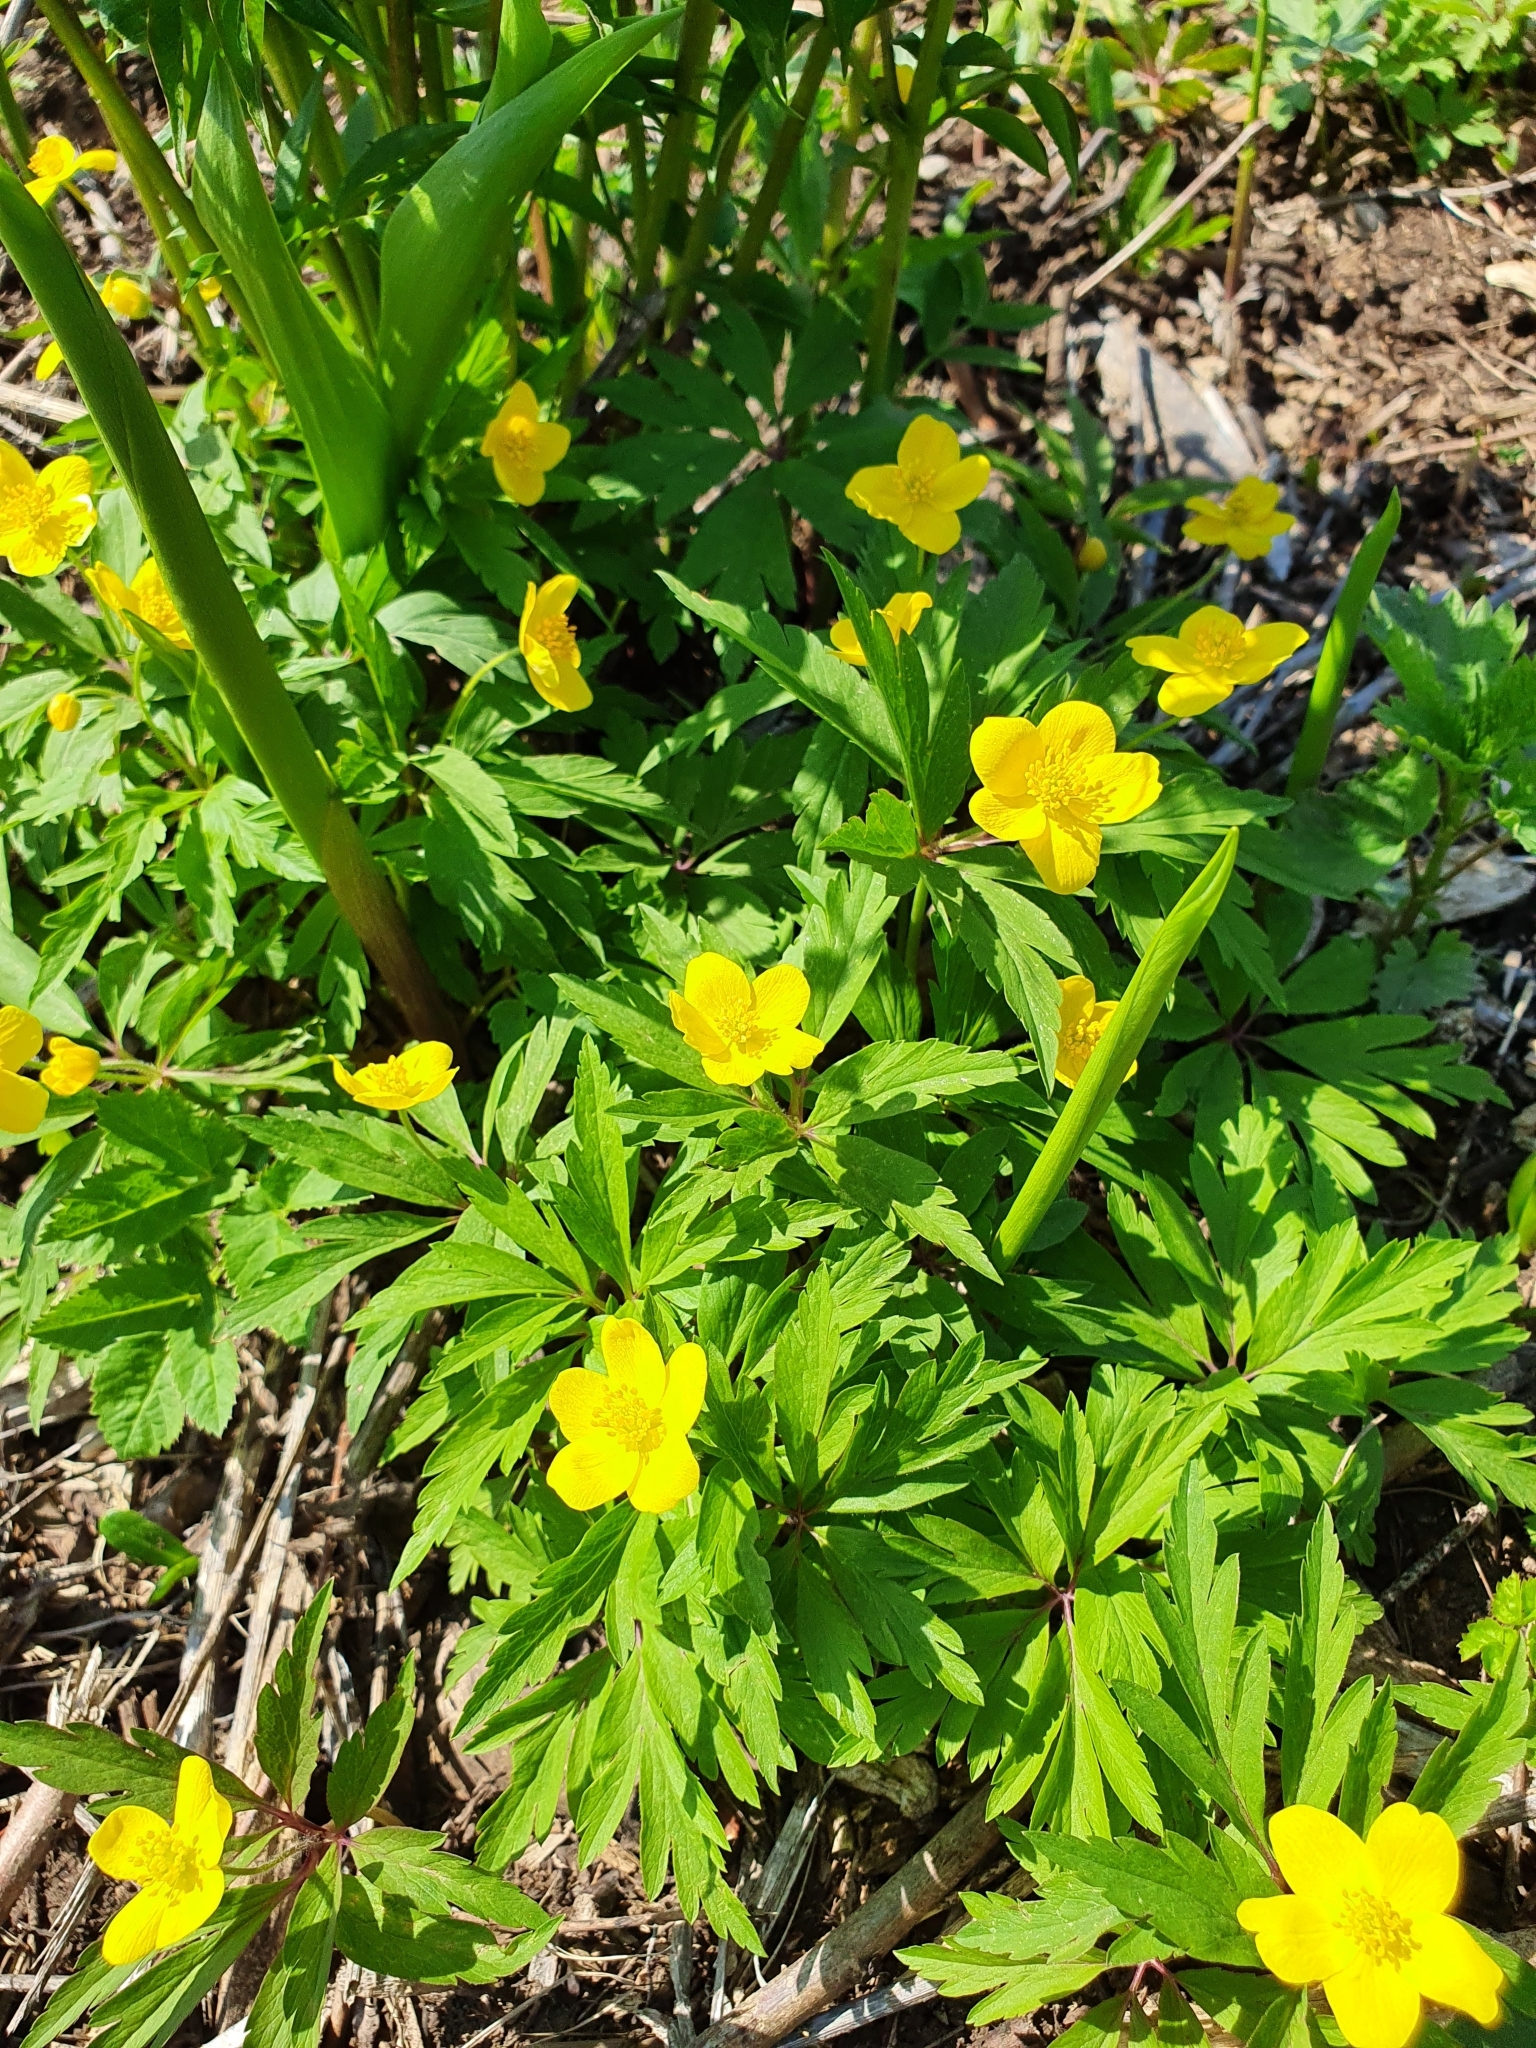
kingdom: Plantae
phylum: Tracheophyta
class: Magnoliopsida
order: Ranunculales
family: Ranunculaceae
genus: Anemone
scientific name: Anemone ranunculoides
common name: Yellow anemone
